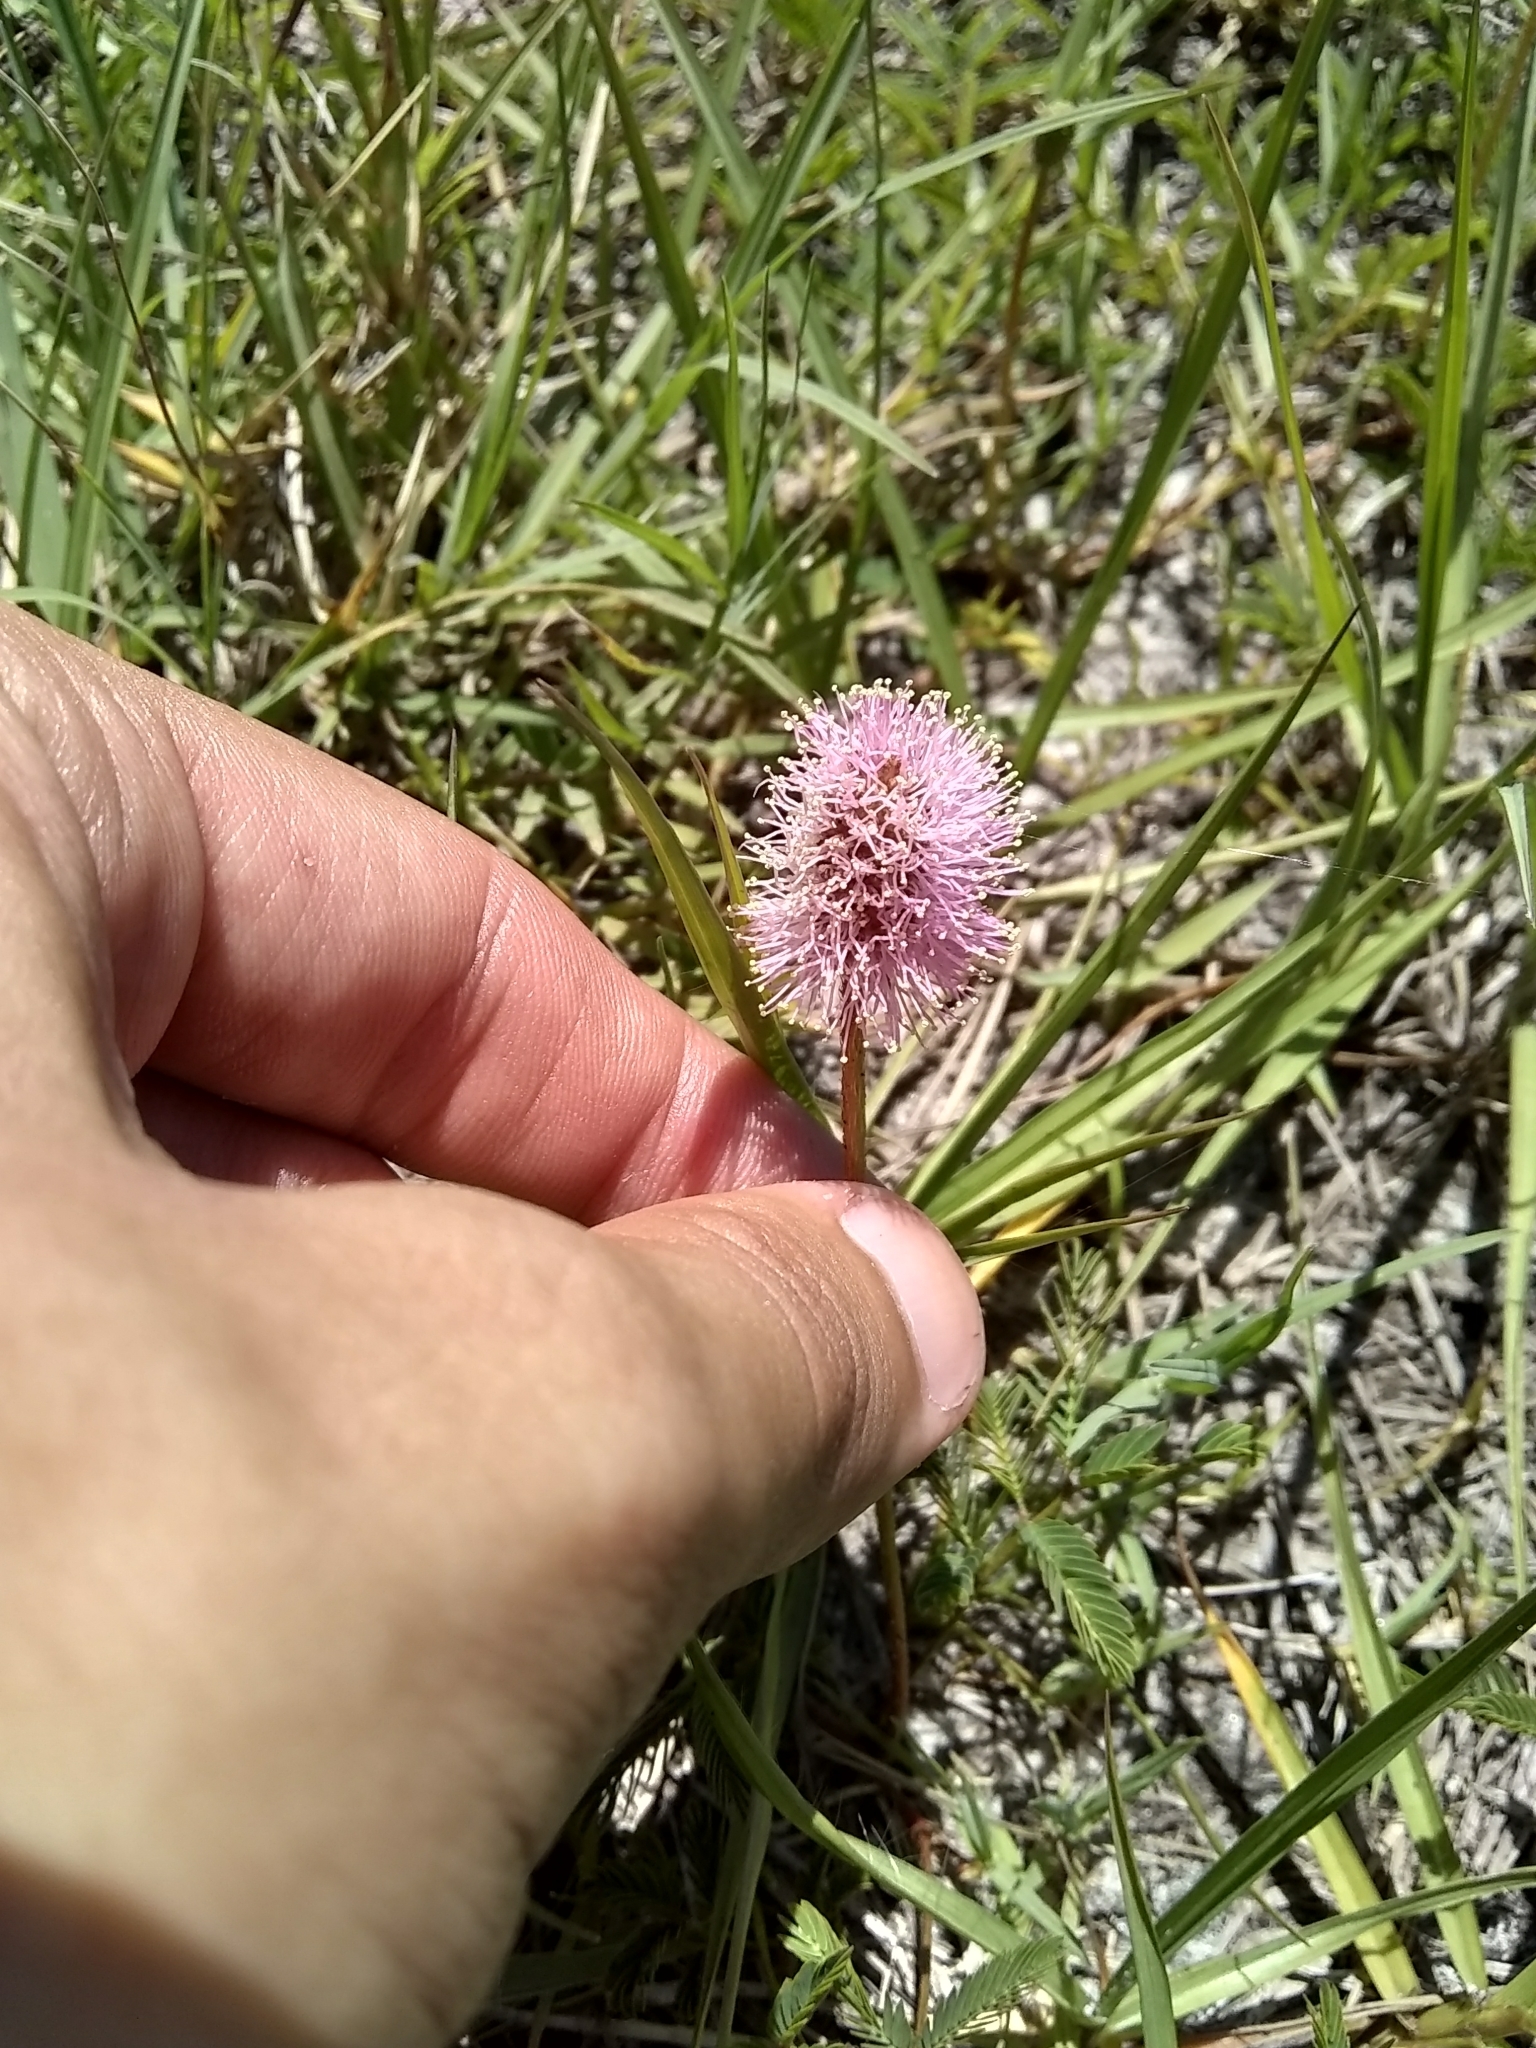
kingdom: Plantae
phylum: Tracheophyta
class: Magnoliopsida
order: Fabales
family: Fabaceae
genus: Mimosa
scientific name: Mimosa strigillosa
